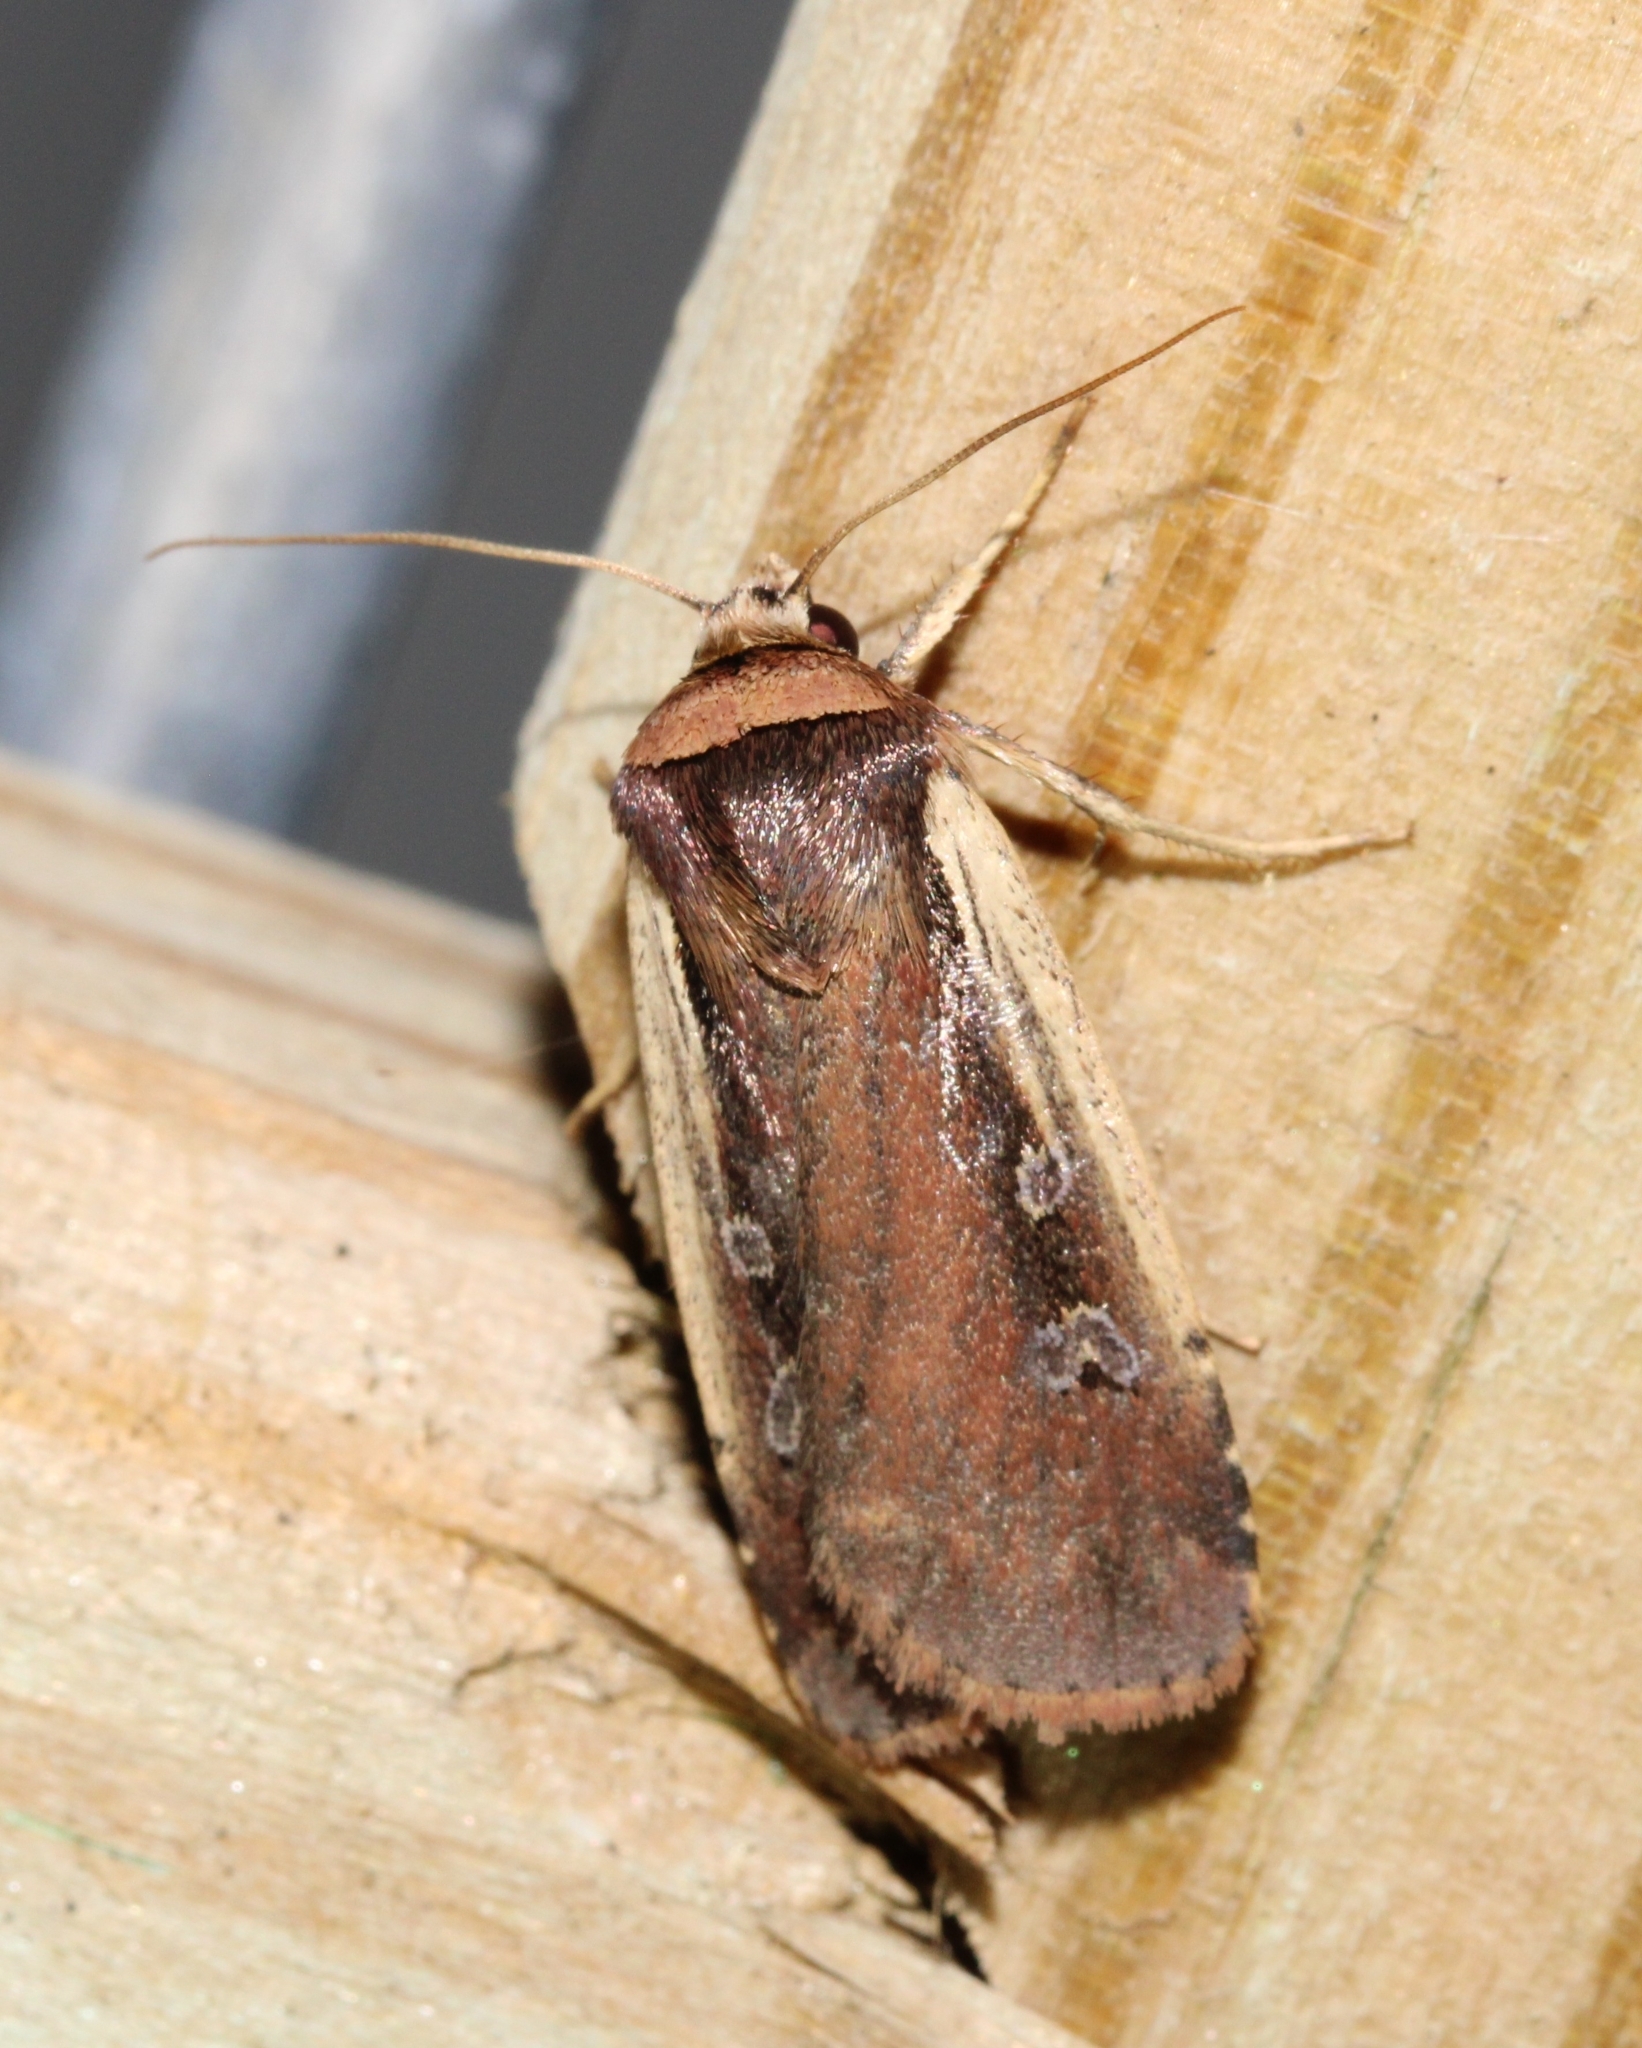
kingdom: Animalia
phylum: Arthropoda
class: Insecta
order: Lepidoptera
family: Noctuidae
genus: Ochropleura
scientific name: Ochropleura implecta
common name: Flame-shouldered dart
